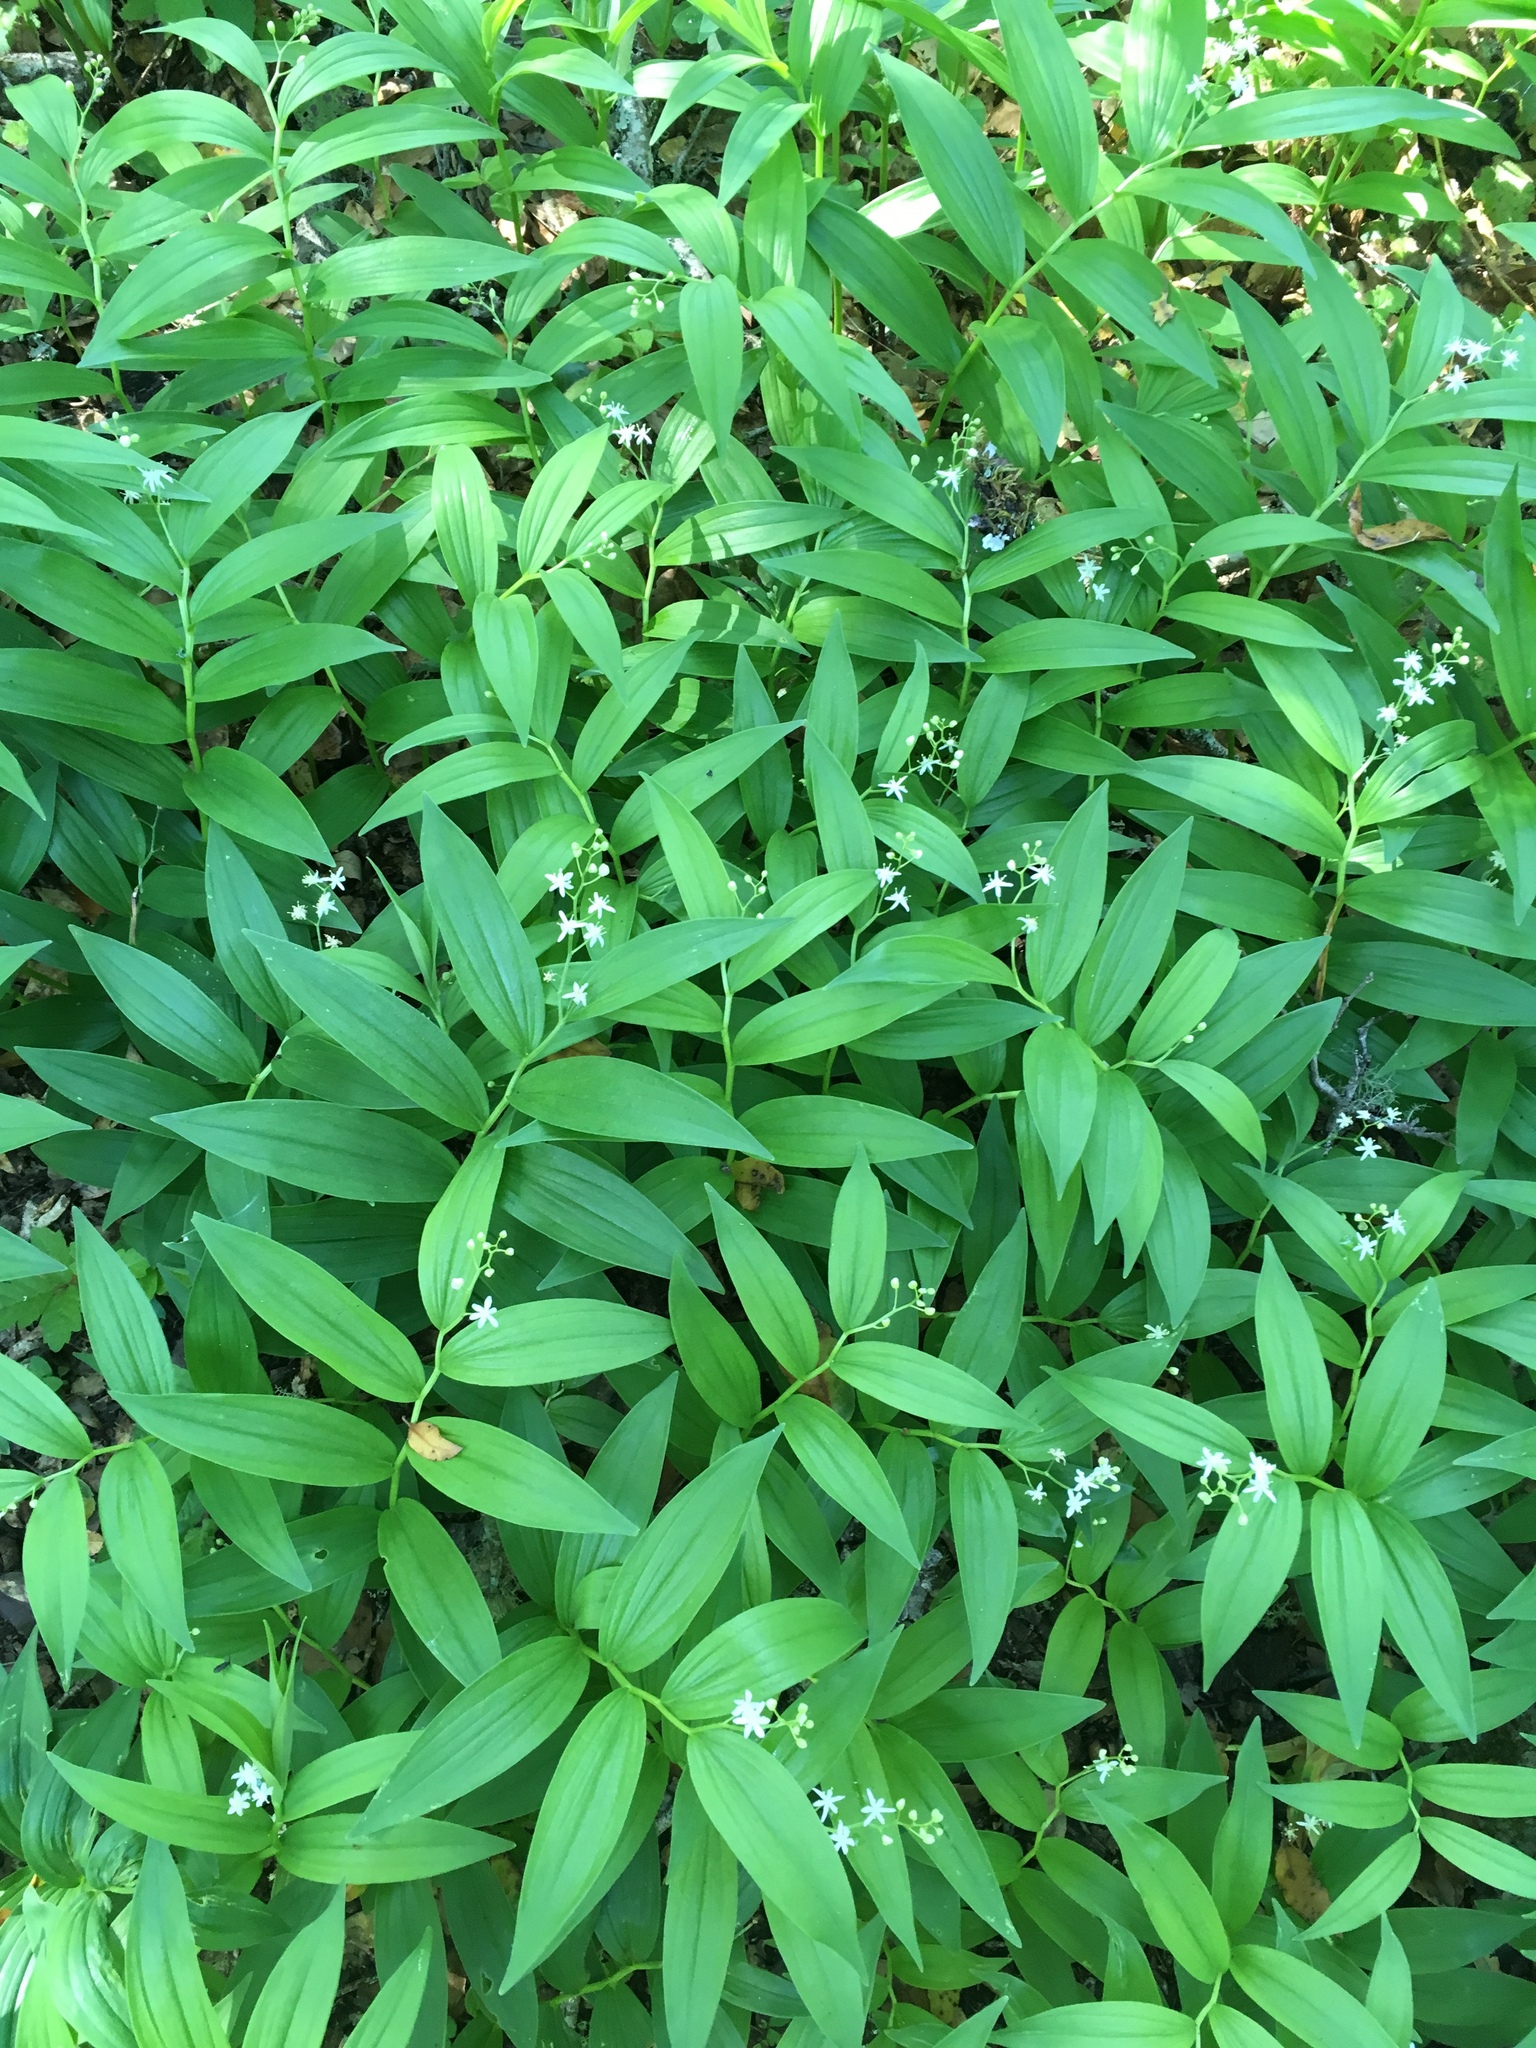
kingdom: Plantae
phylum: Tracheophyta
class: Liliopsida
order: Asparagales
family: Asparagaceae
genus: Maianthemum
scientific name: Maianthemum stellatum
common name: Little false solomon's seal
